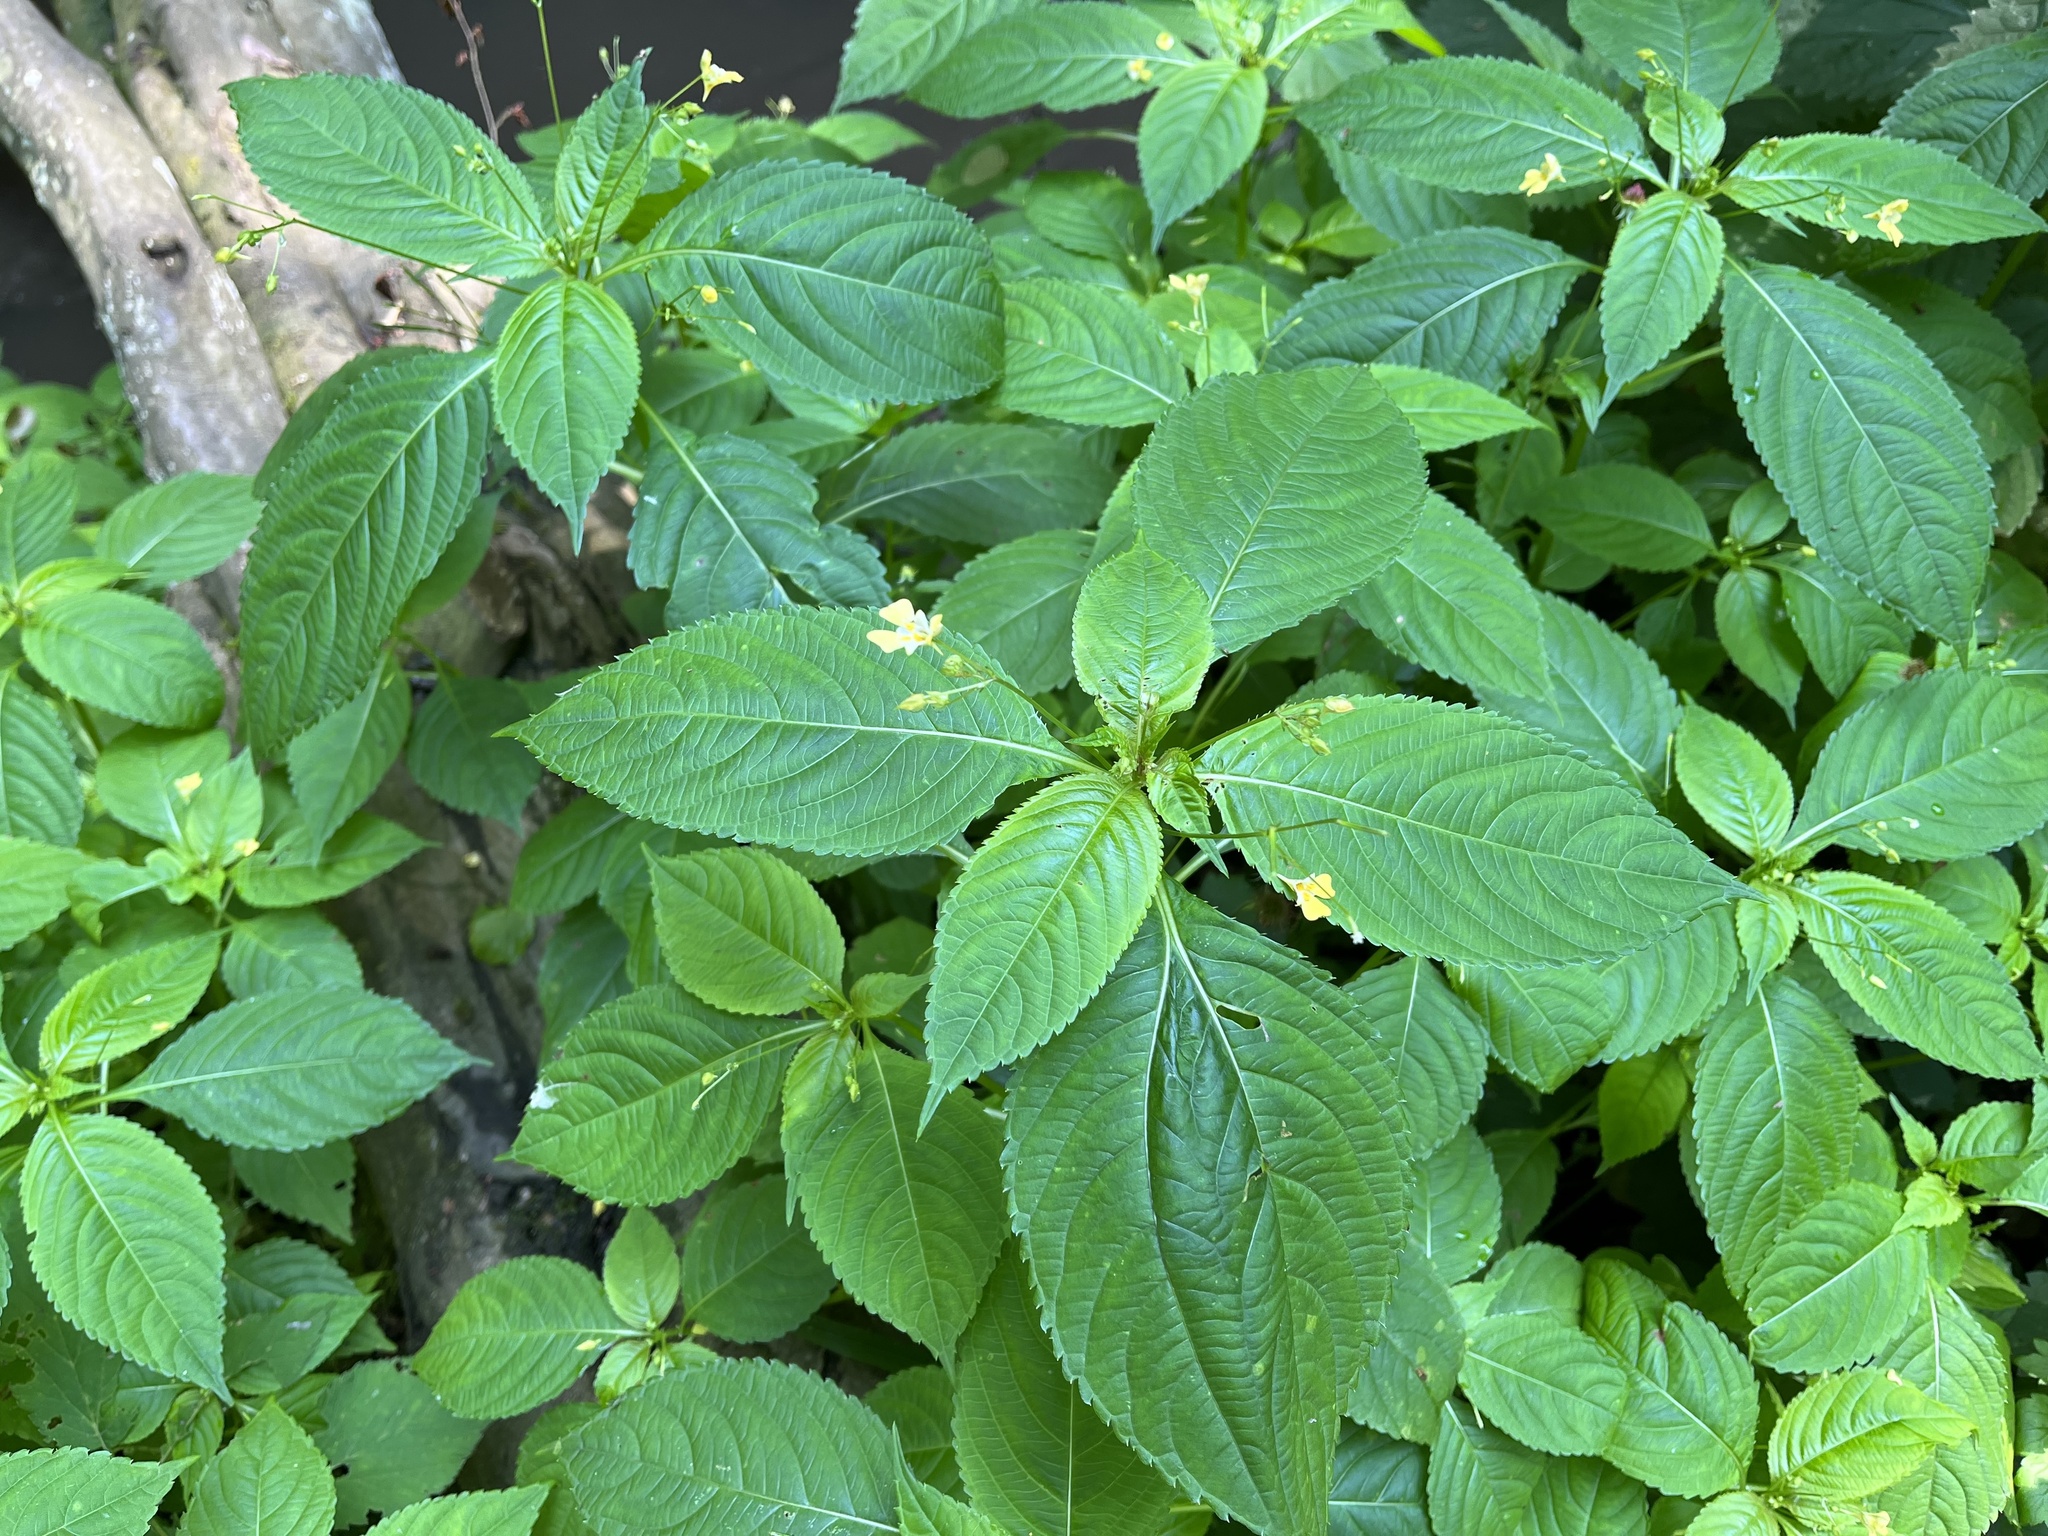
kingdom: Plantae
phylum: Tracheophyta
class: Magnoliopsida
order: Ericales
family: Balsaminaceae
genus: Impatiens
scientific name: Impatiens parviflora
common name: Small balsam
